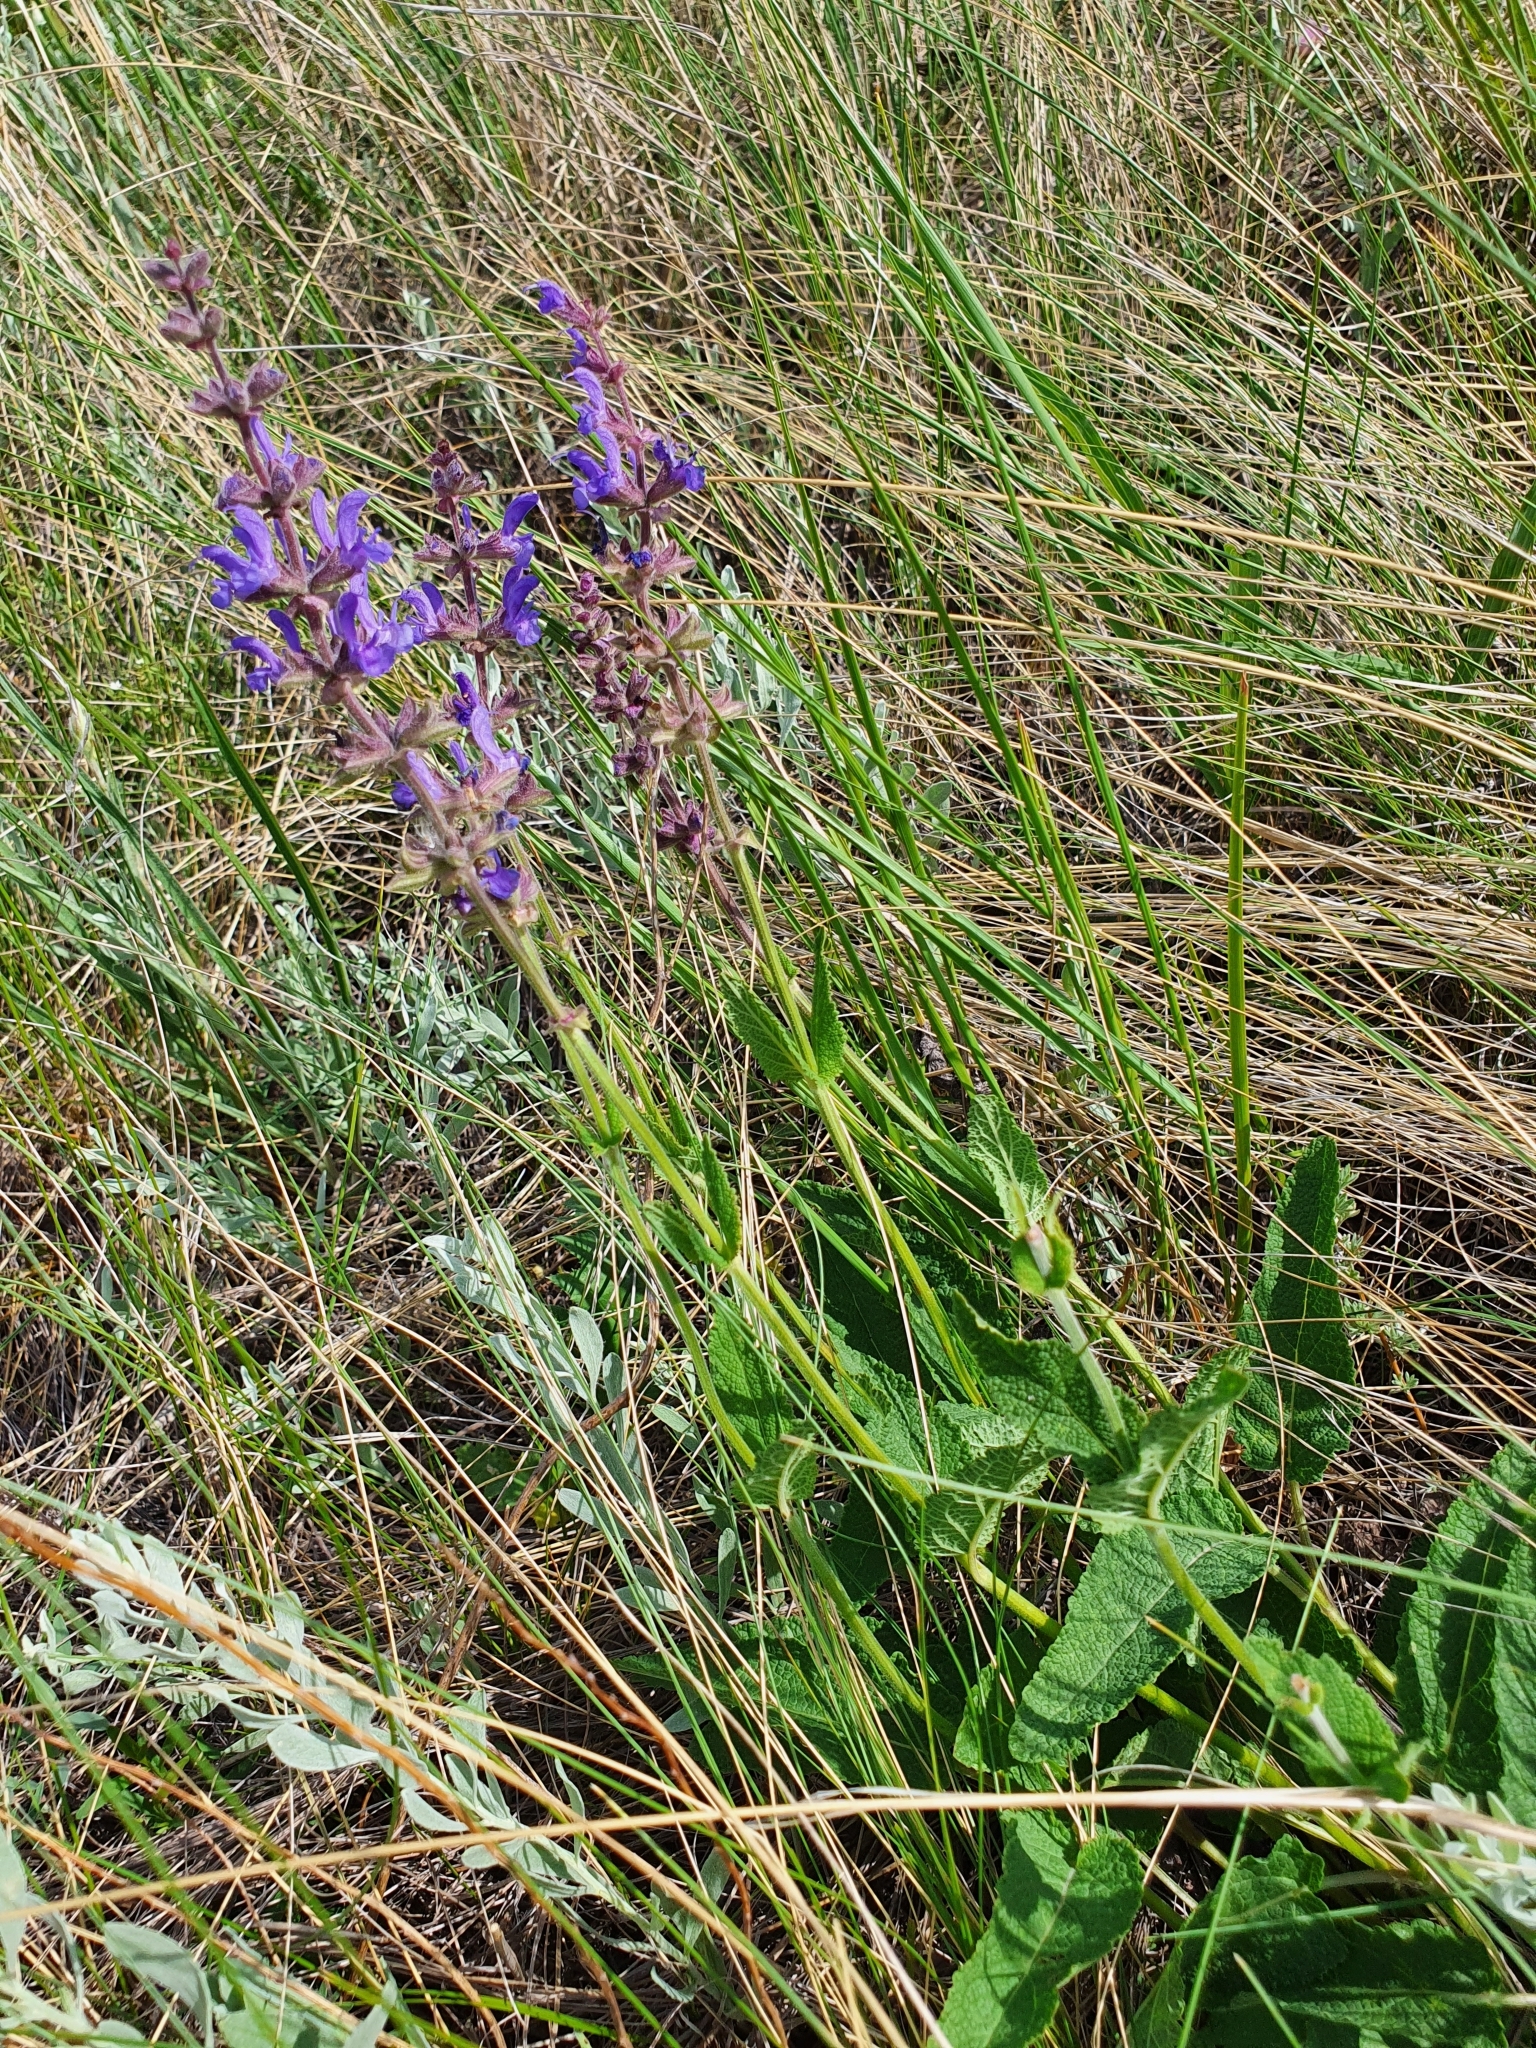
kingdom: Plantae
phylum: Tracheophyta
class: Magnoliopsida
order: Lamiales
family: Lamiaceae
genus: Salvia
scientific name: Salvia dumetorum
